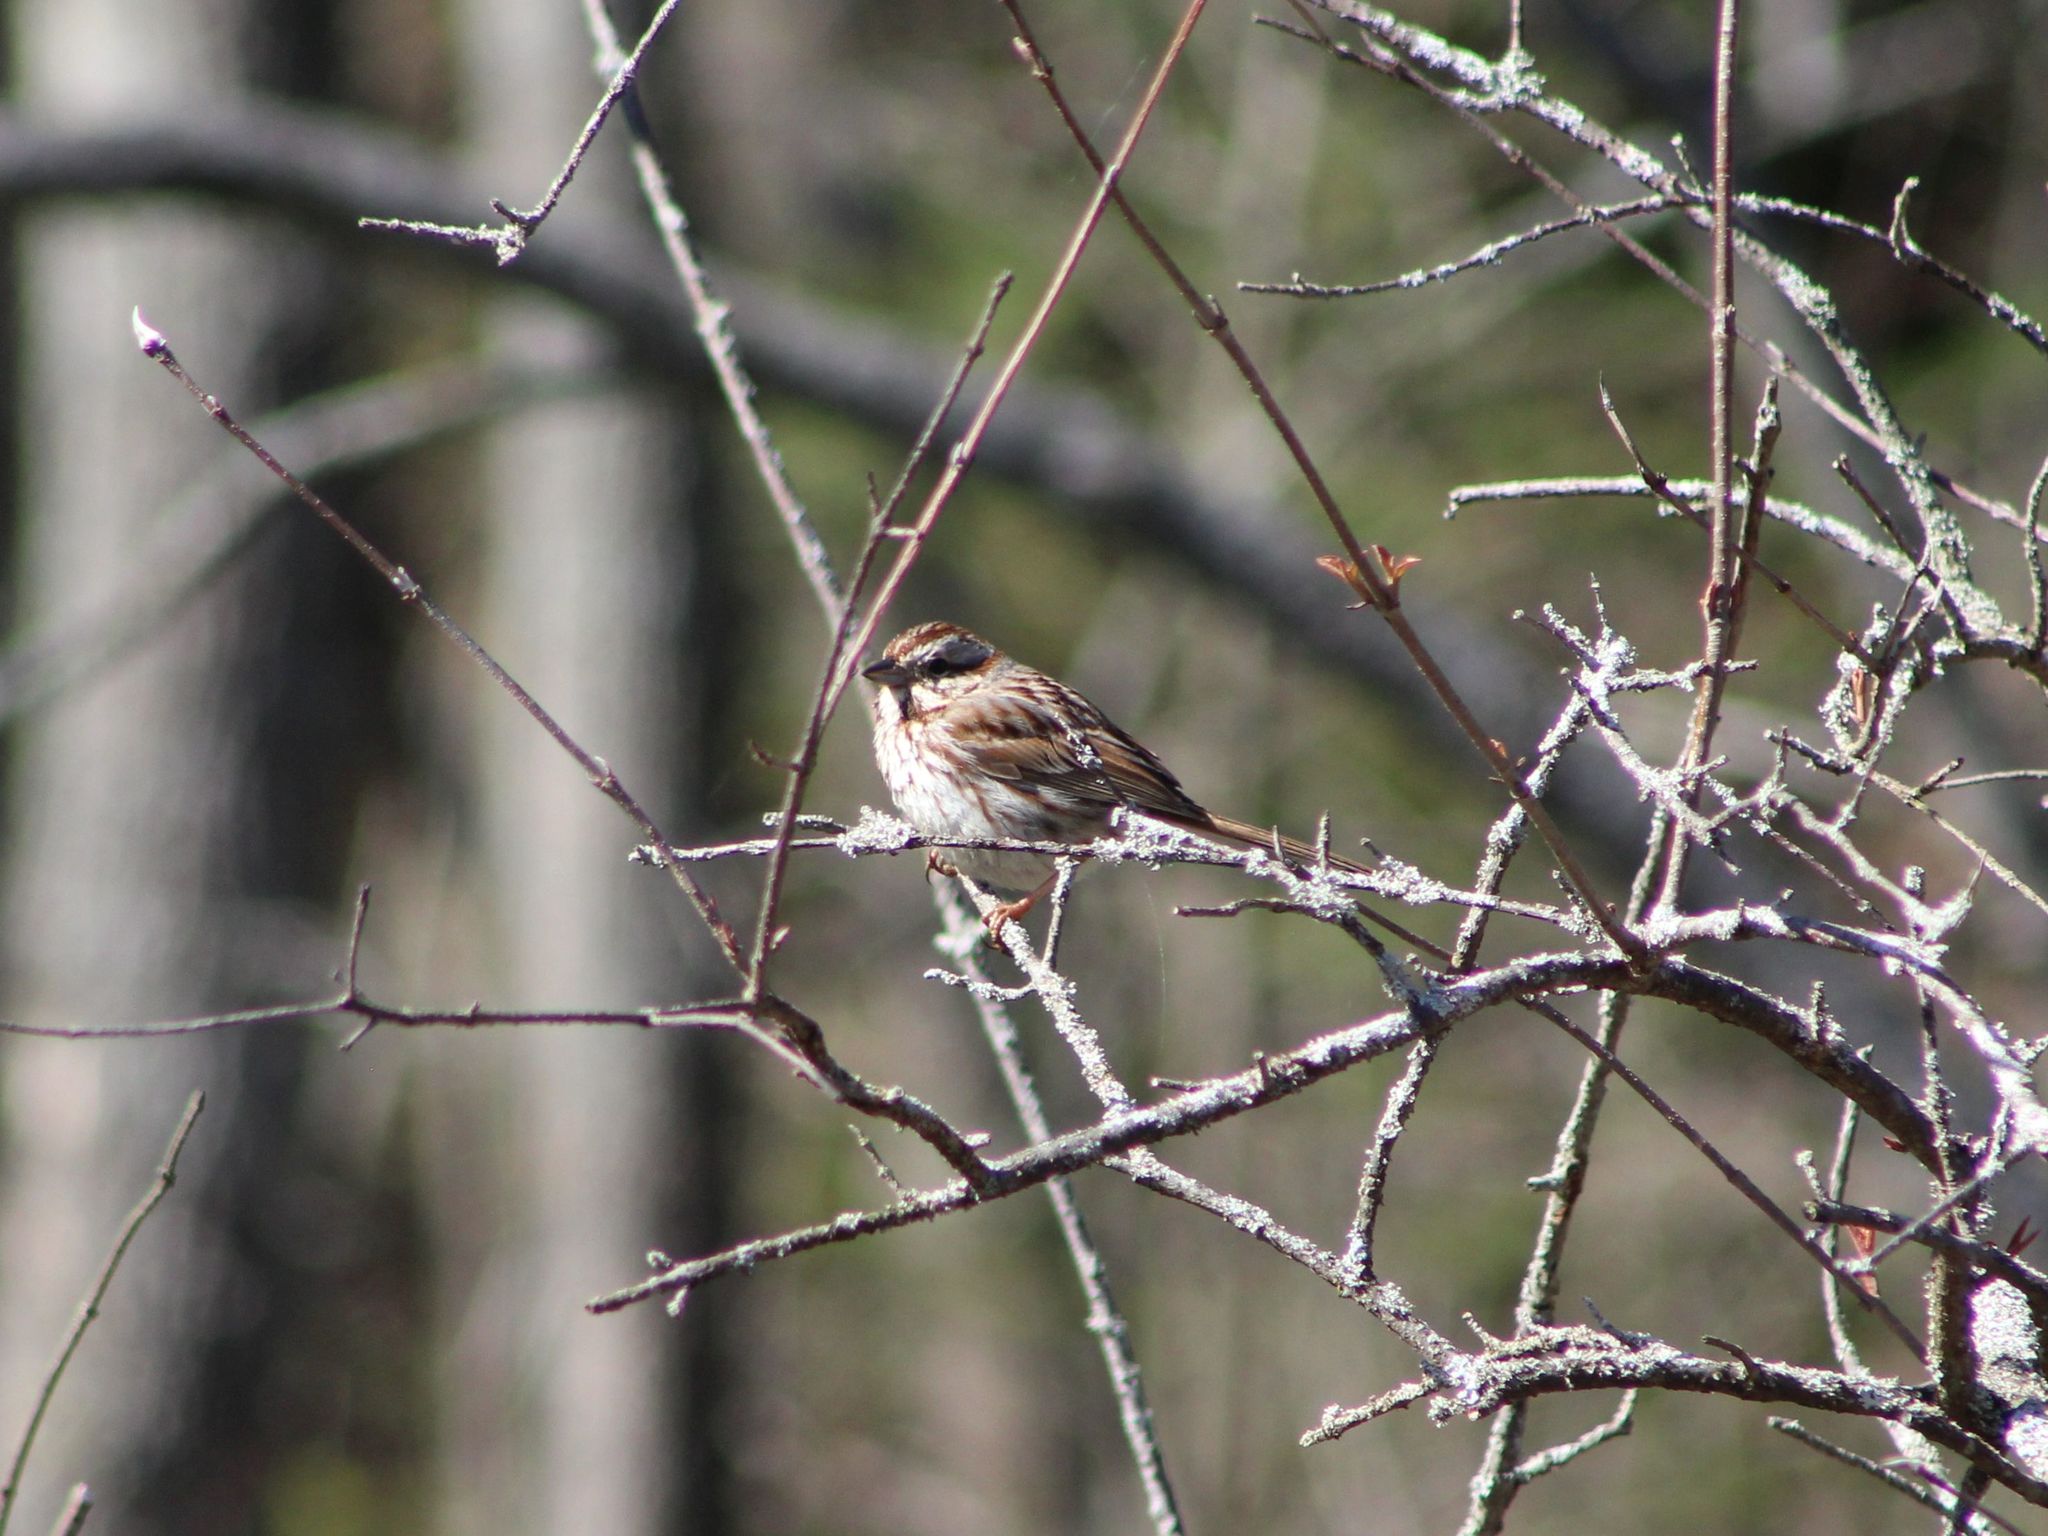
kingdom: Animalia
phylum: Chordata
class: Aves
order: Passeriformes
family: Passerellidae
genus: Melospiza
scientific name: Melospiza melodia
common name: Song sparrow
